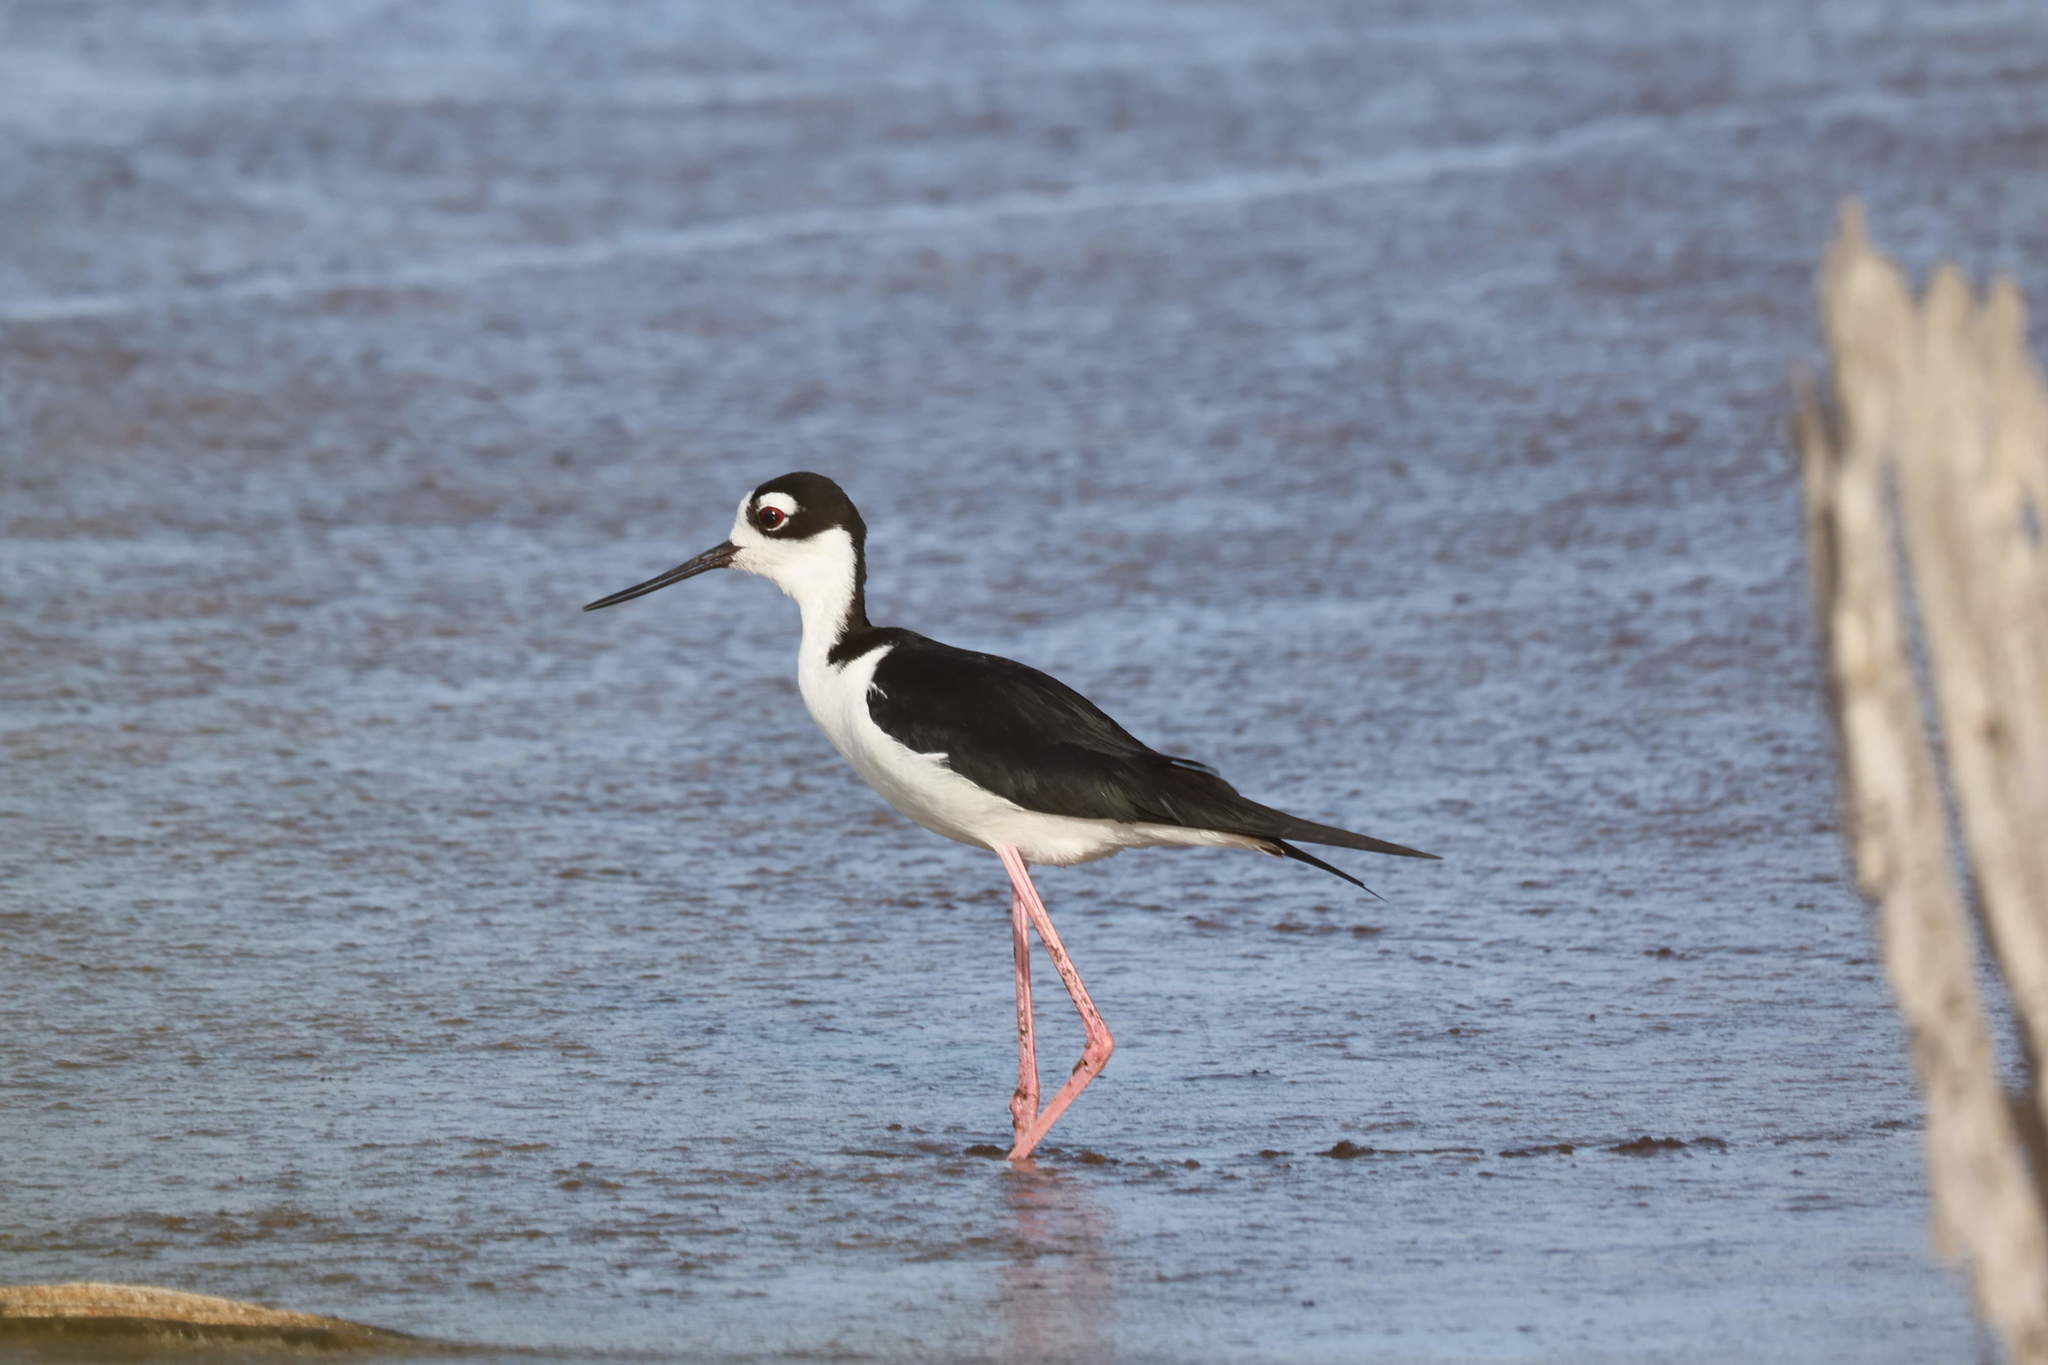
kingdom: Animalia
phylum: Chordata
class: Aves
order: Charadriiformes
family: Recurvirostridae
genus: Himantopus
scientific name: Himantopus mexicanus
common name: Black-necked stilt
